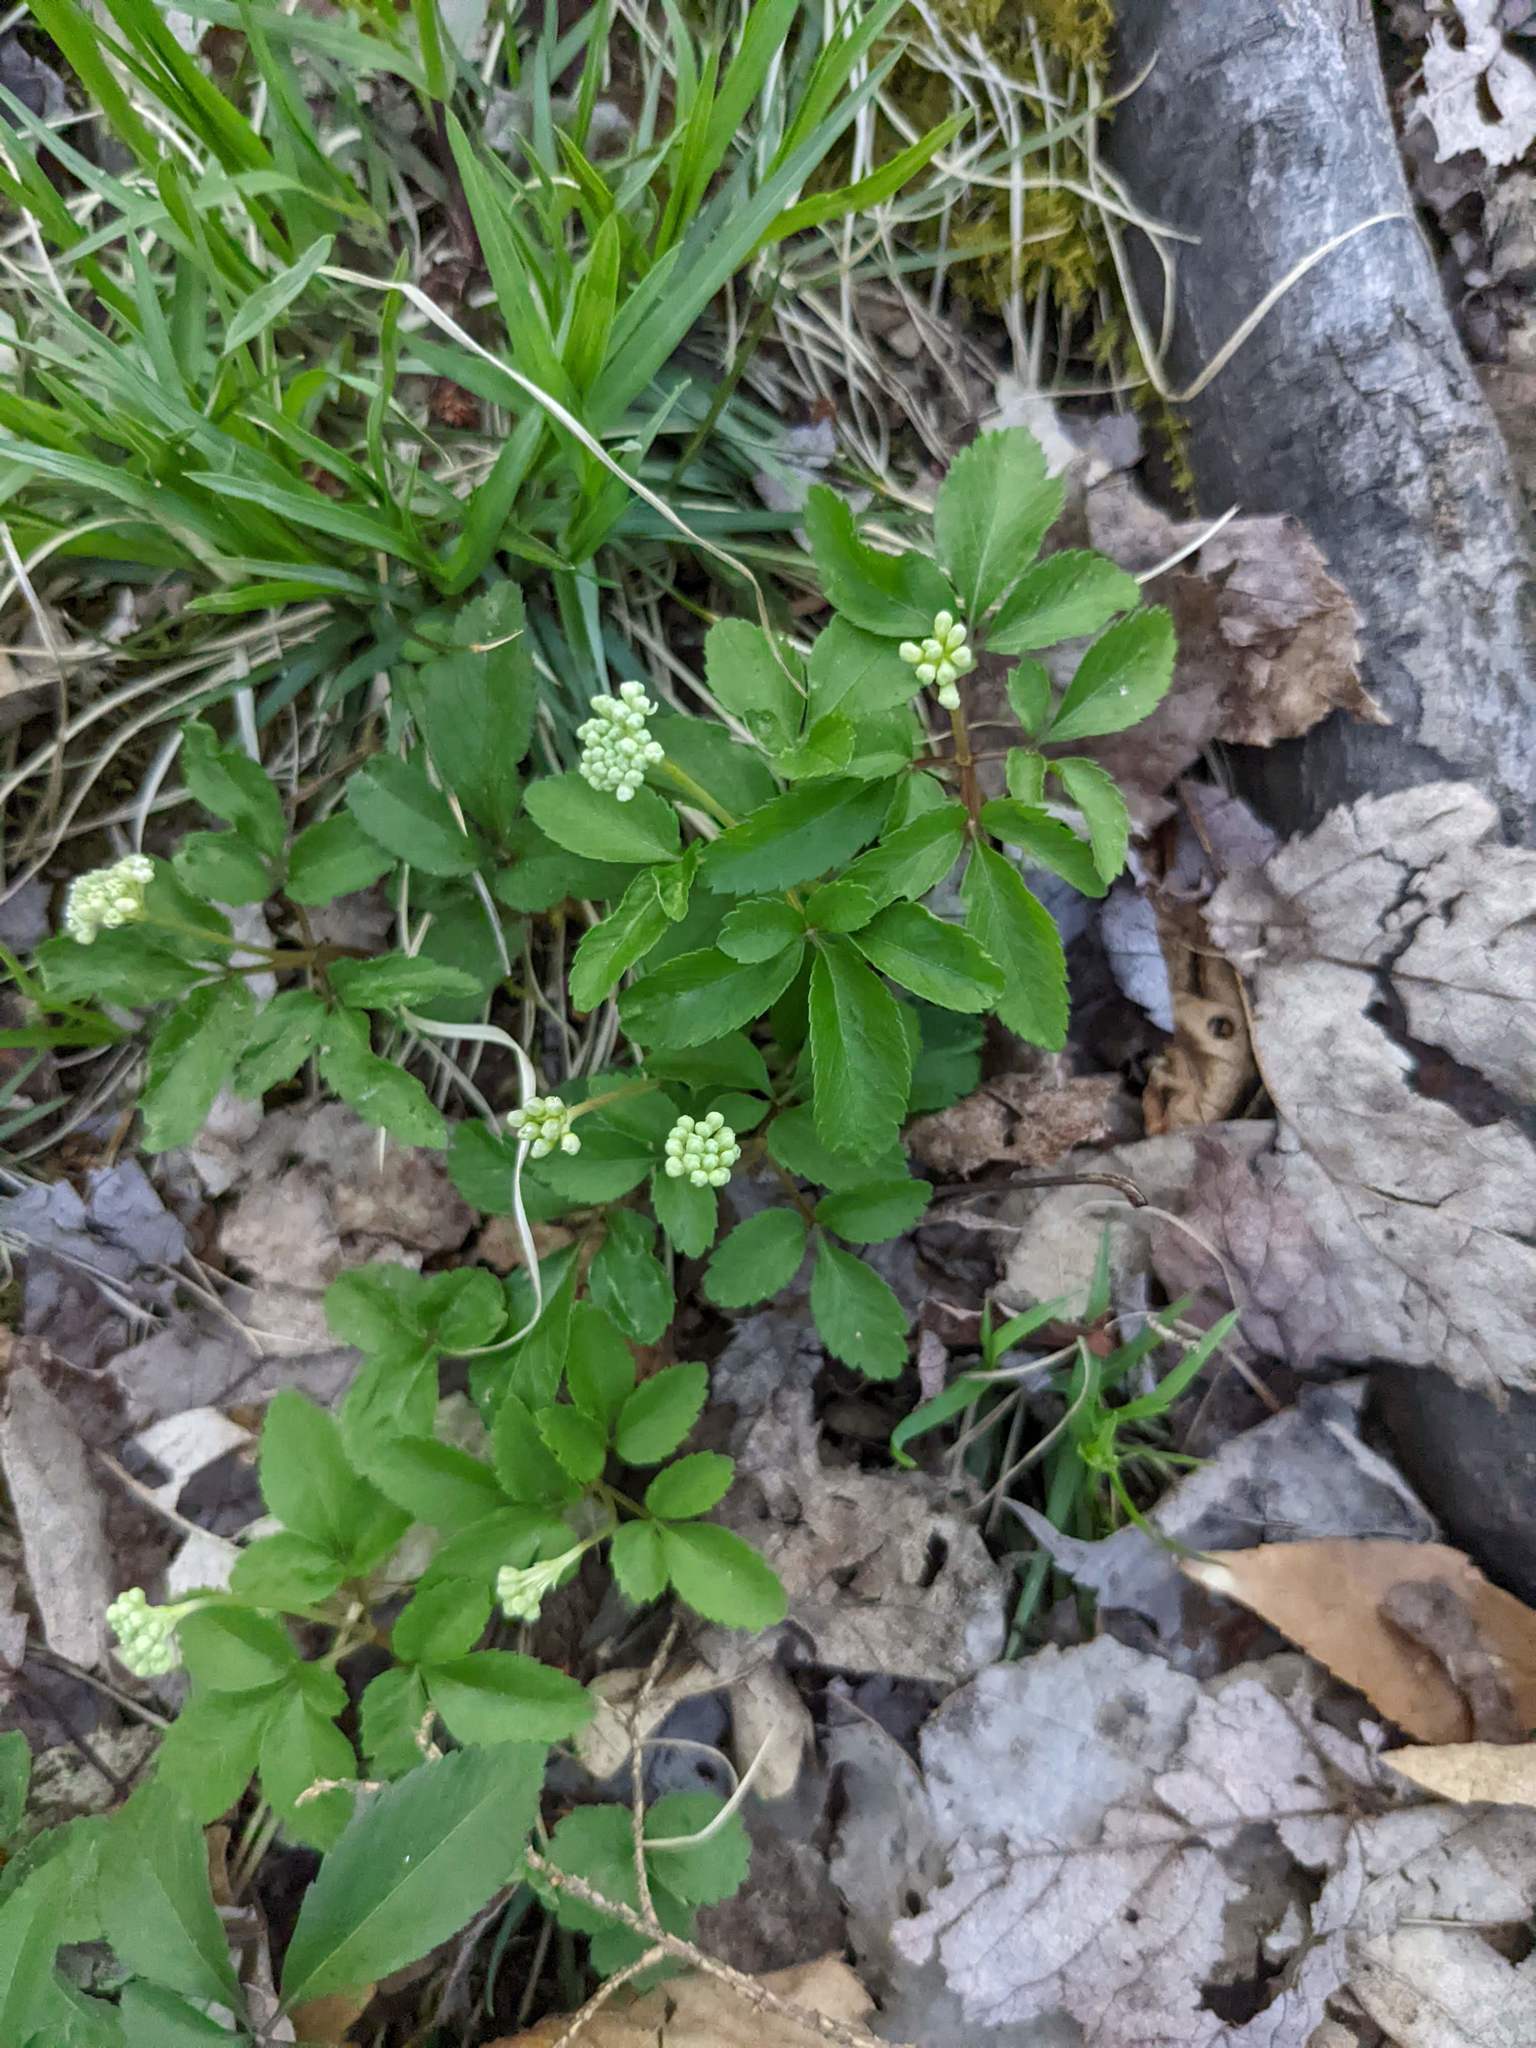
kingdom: Plantae
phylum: Tracheophyta
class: Magnoliopsida
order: Apiales
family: Araliaceae
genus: Panax
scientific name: Panax trifolius
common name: Dwarf ginseng
